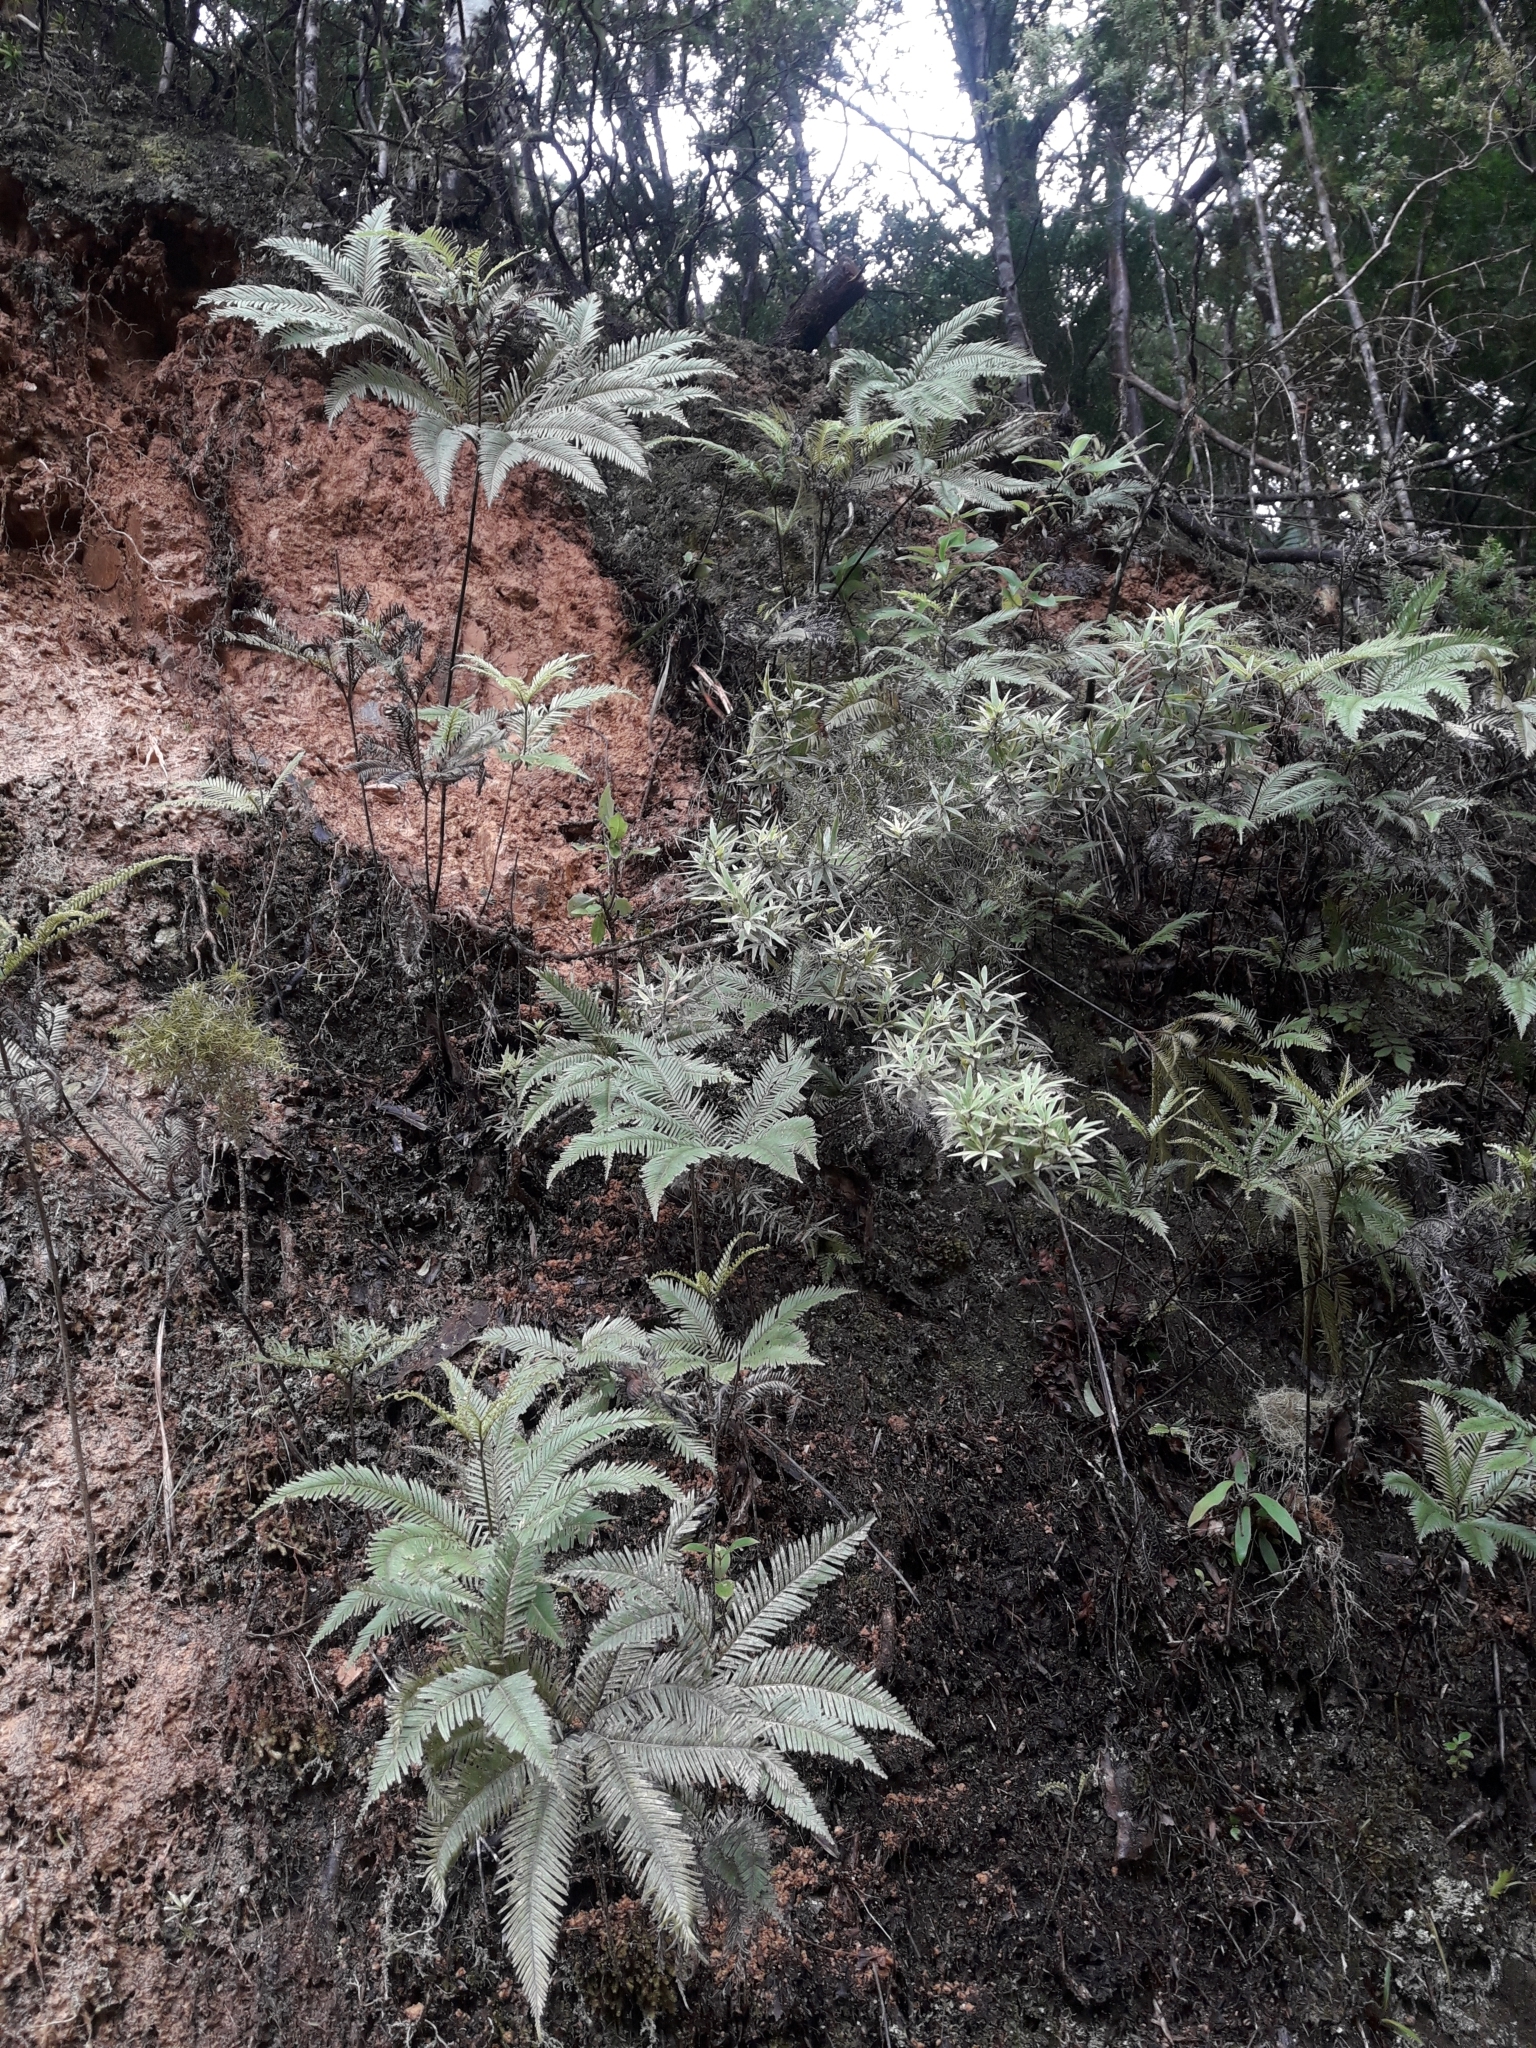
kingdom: Plantae
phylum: Tracheophyta
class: Polypodiopsida
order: Gleicheniales
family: Gleicheniaceae
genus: Sticherus
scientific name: Sticherus flabellatus
